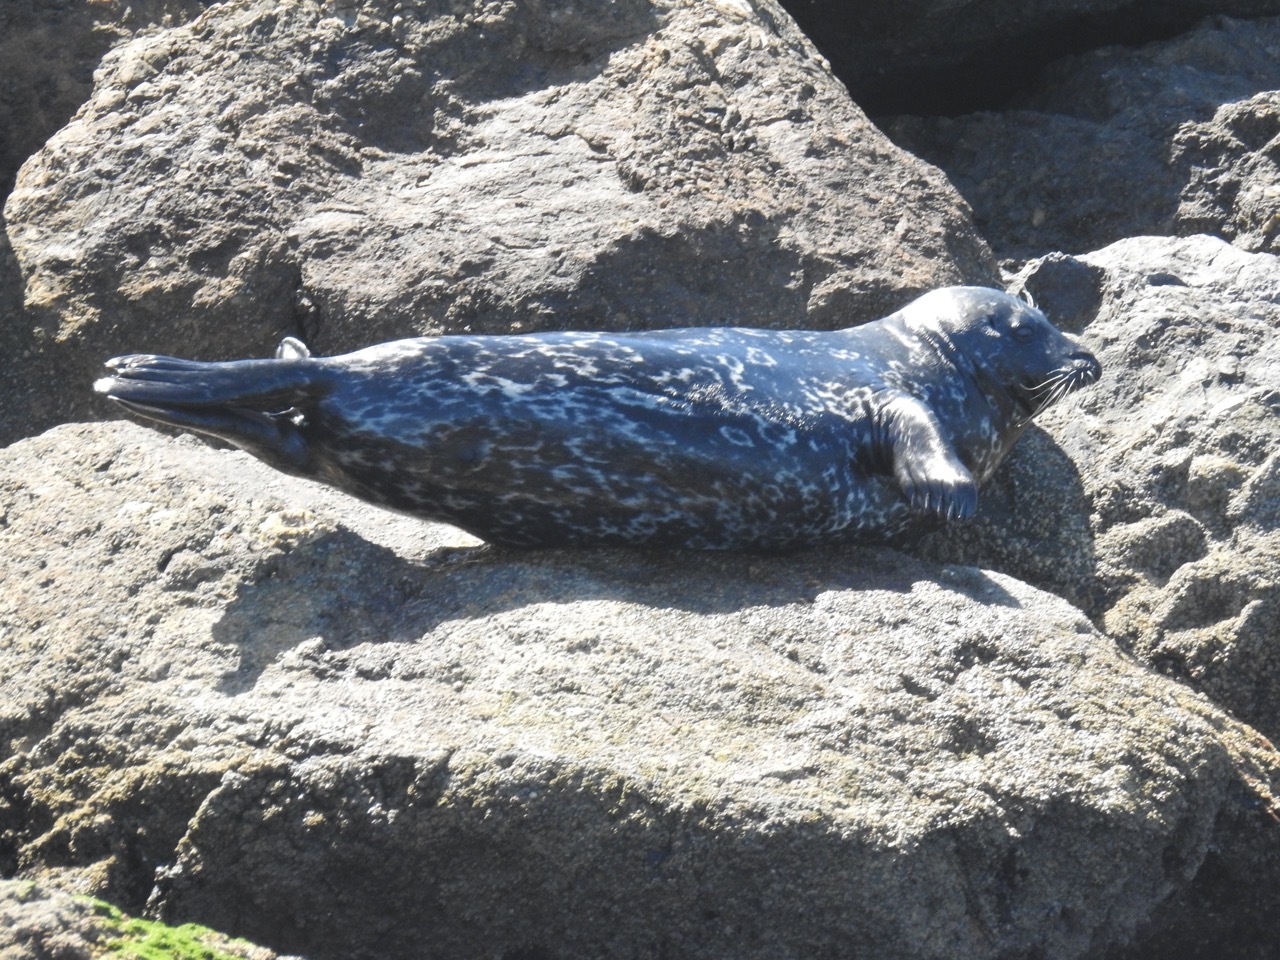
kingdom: Animalia
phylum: Chordata
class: Mammalia
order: Carnivora
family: Phocidae
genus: Phoca
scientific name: Phoca vitulina
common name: Harbor seal
